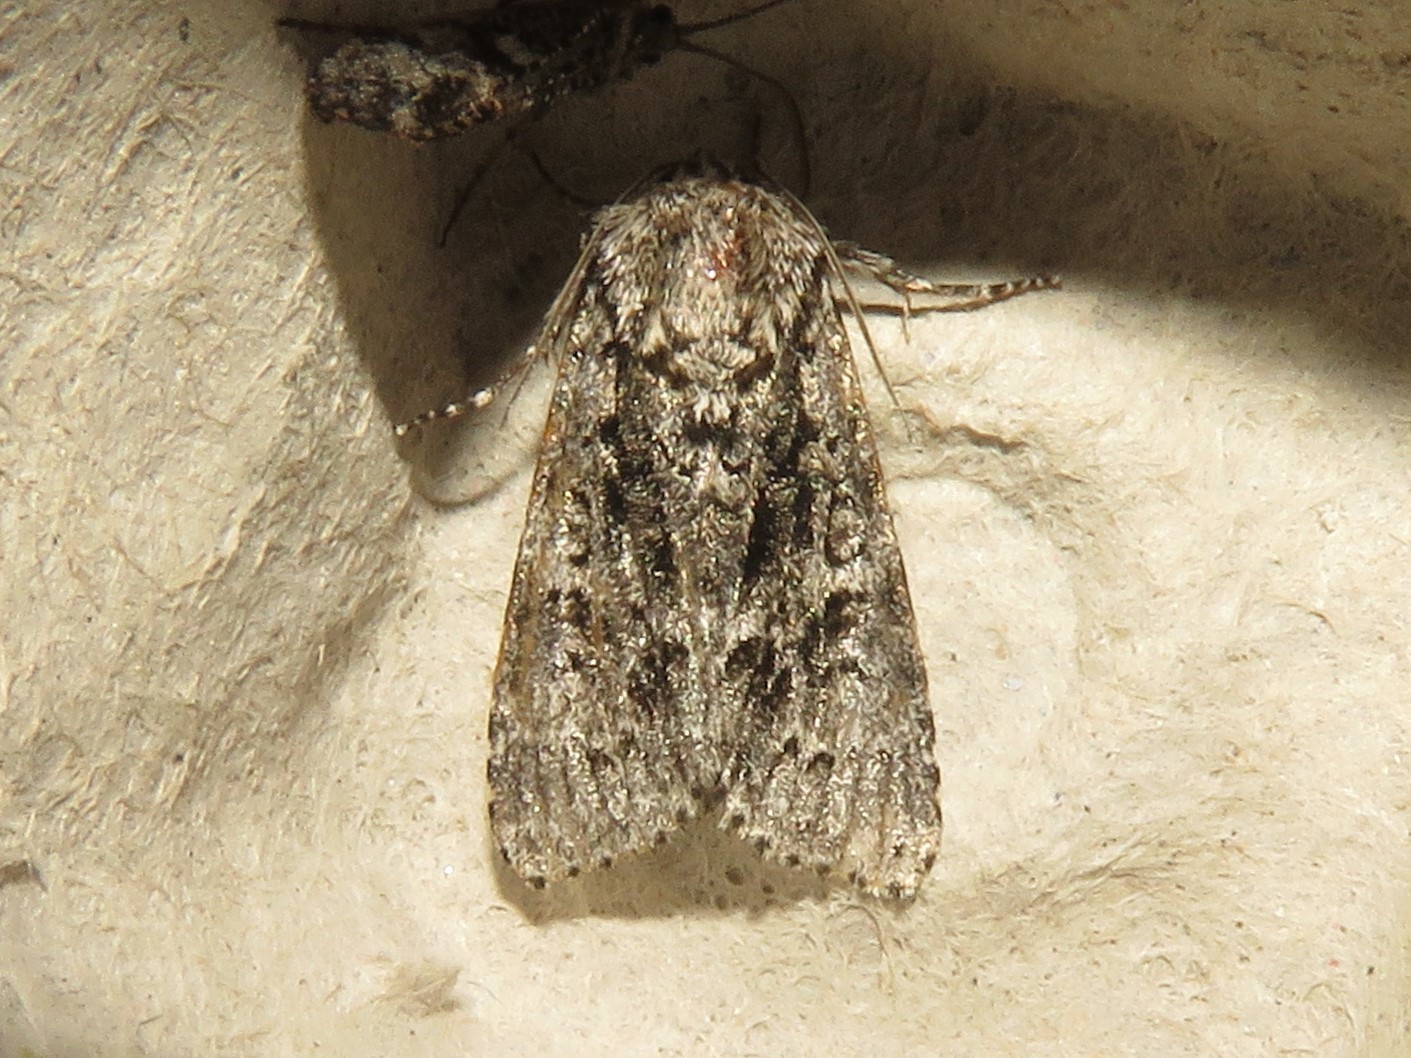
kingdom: Animalia
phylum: Arthropoda
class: Insecta
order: Lepidoptera
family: Noctuidae
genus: Acronicta
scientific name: Acronicta impressa
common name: Impressed dagger
